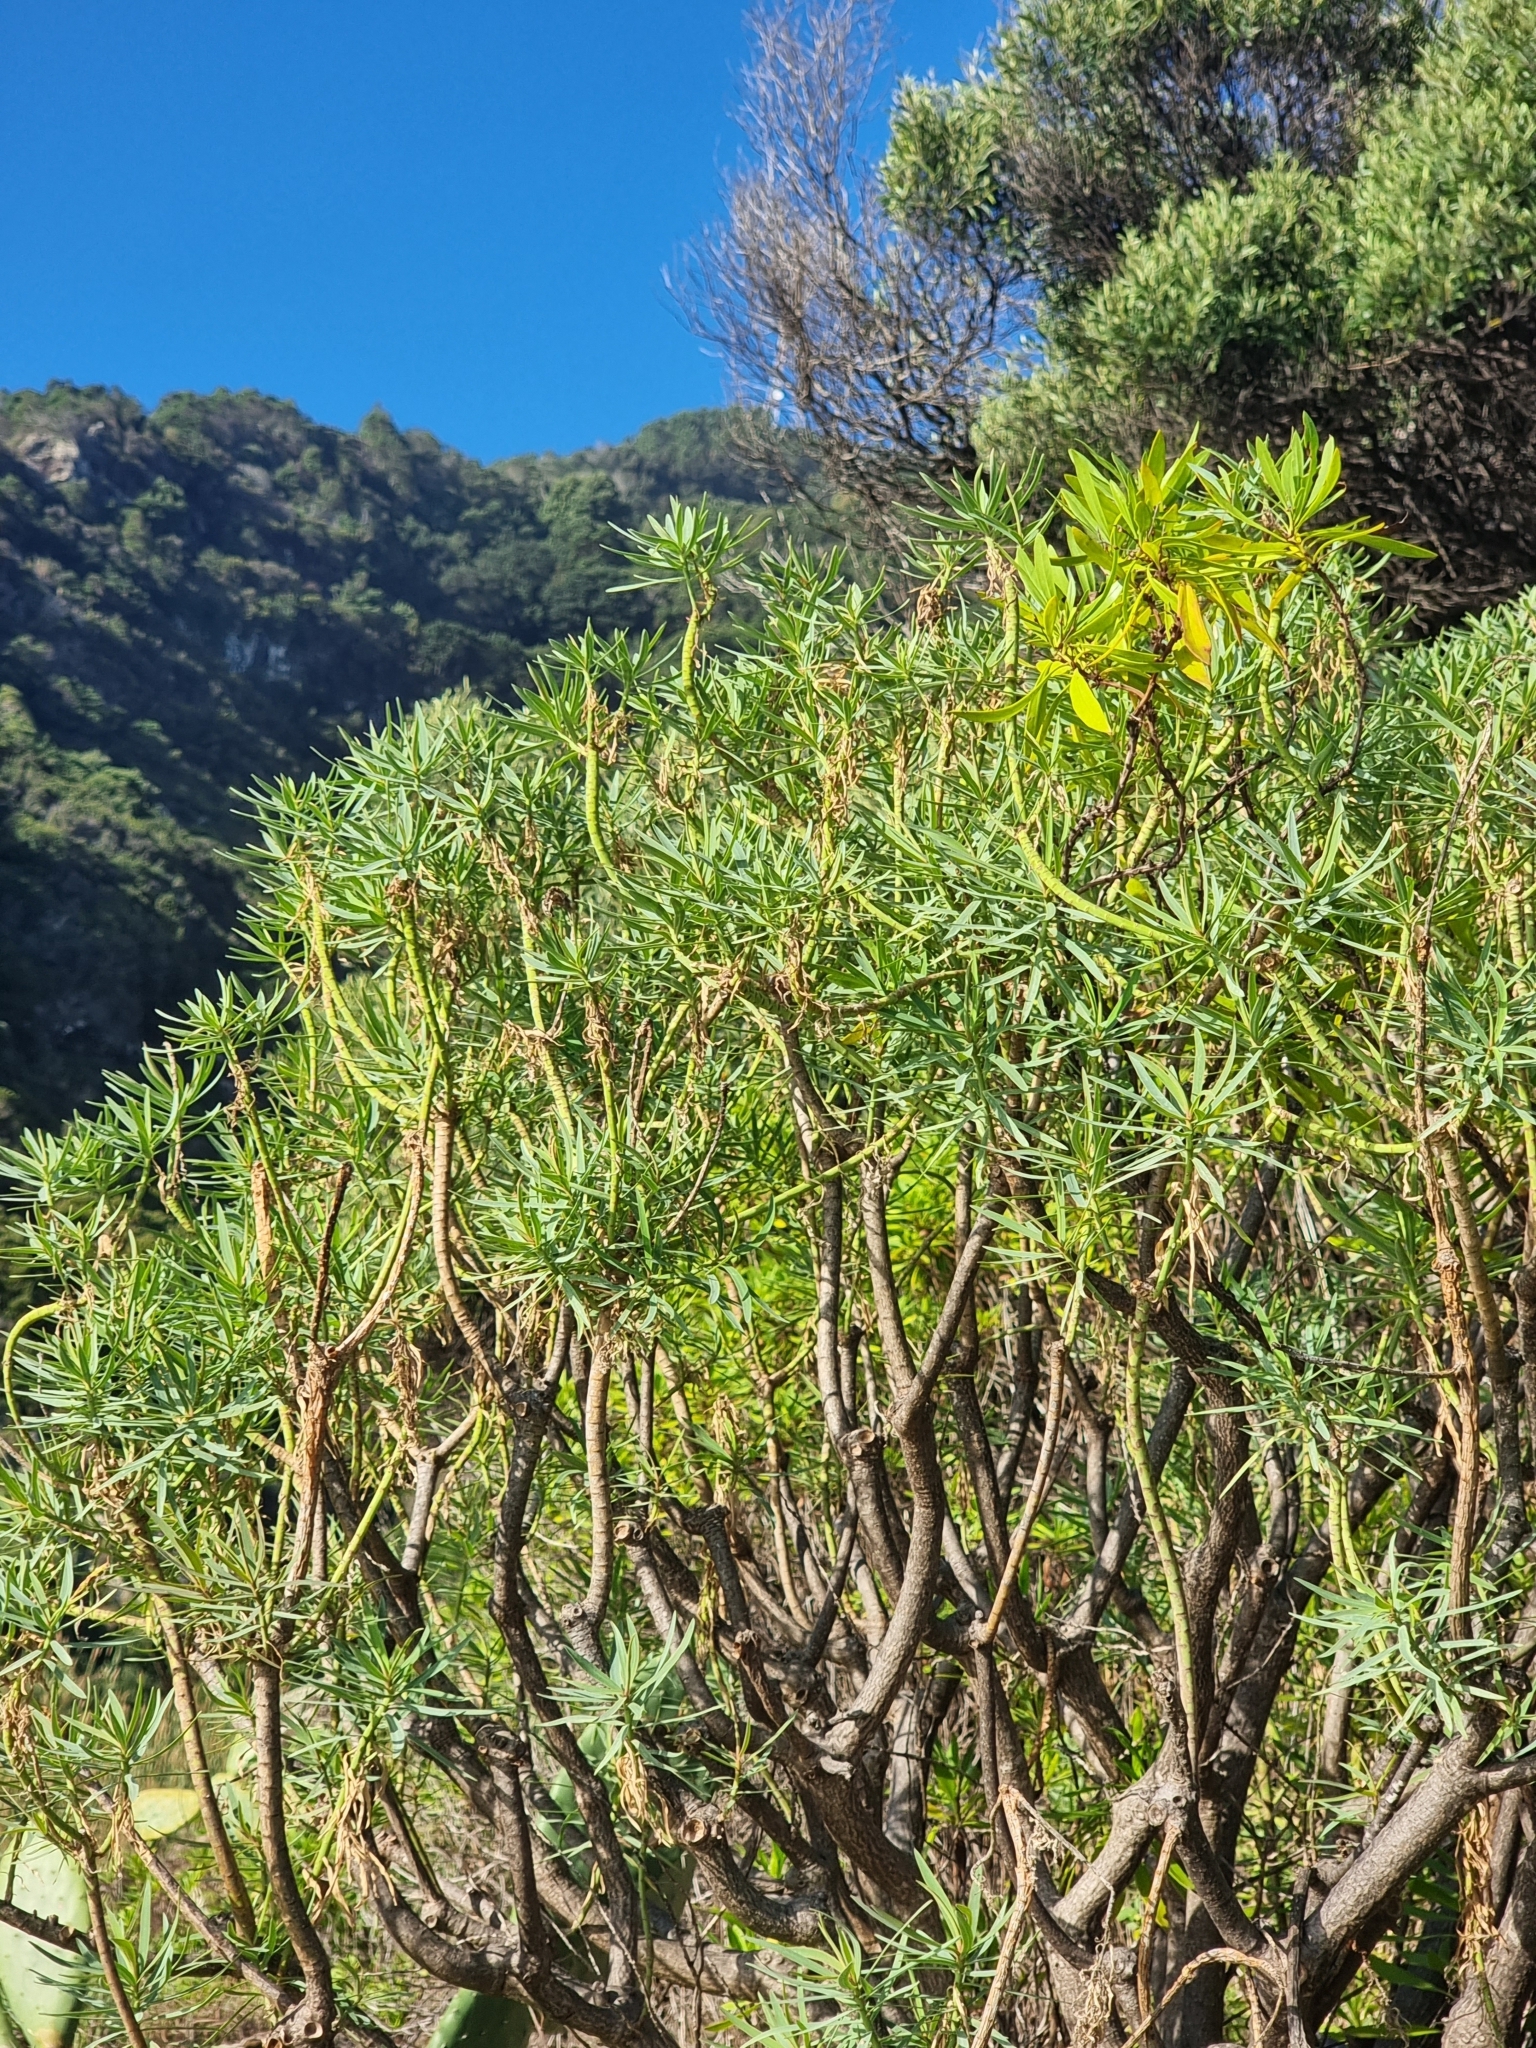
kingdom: Plantae
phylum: Tracheophyta
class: Magnoliopsida
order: Malpighiales
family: Euphorbiaceae
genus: Euphorbia
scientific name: Euphorbia piscatoria
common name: Fish-stunning spurge
